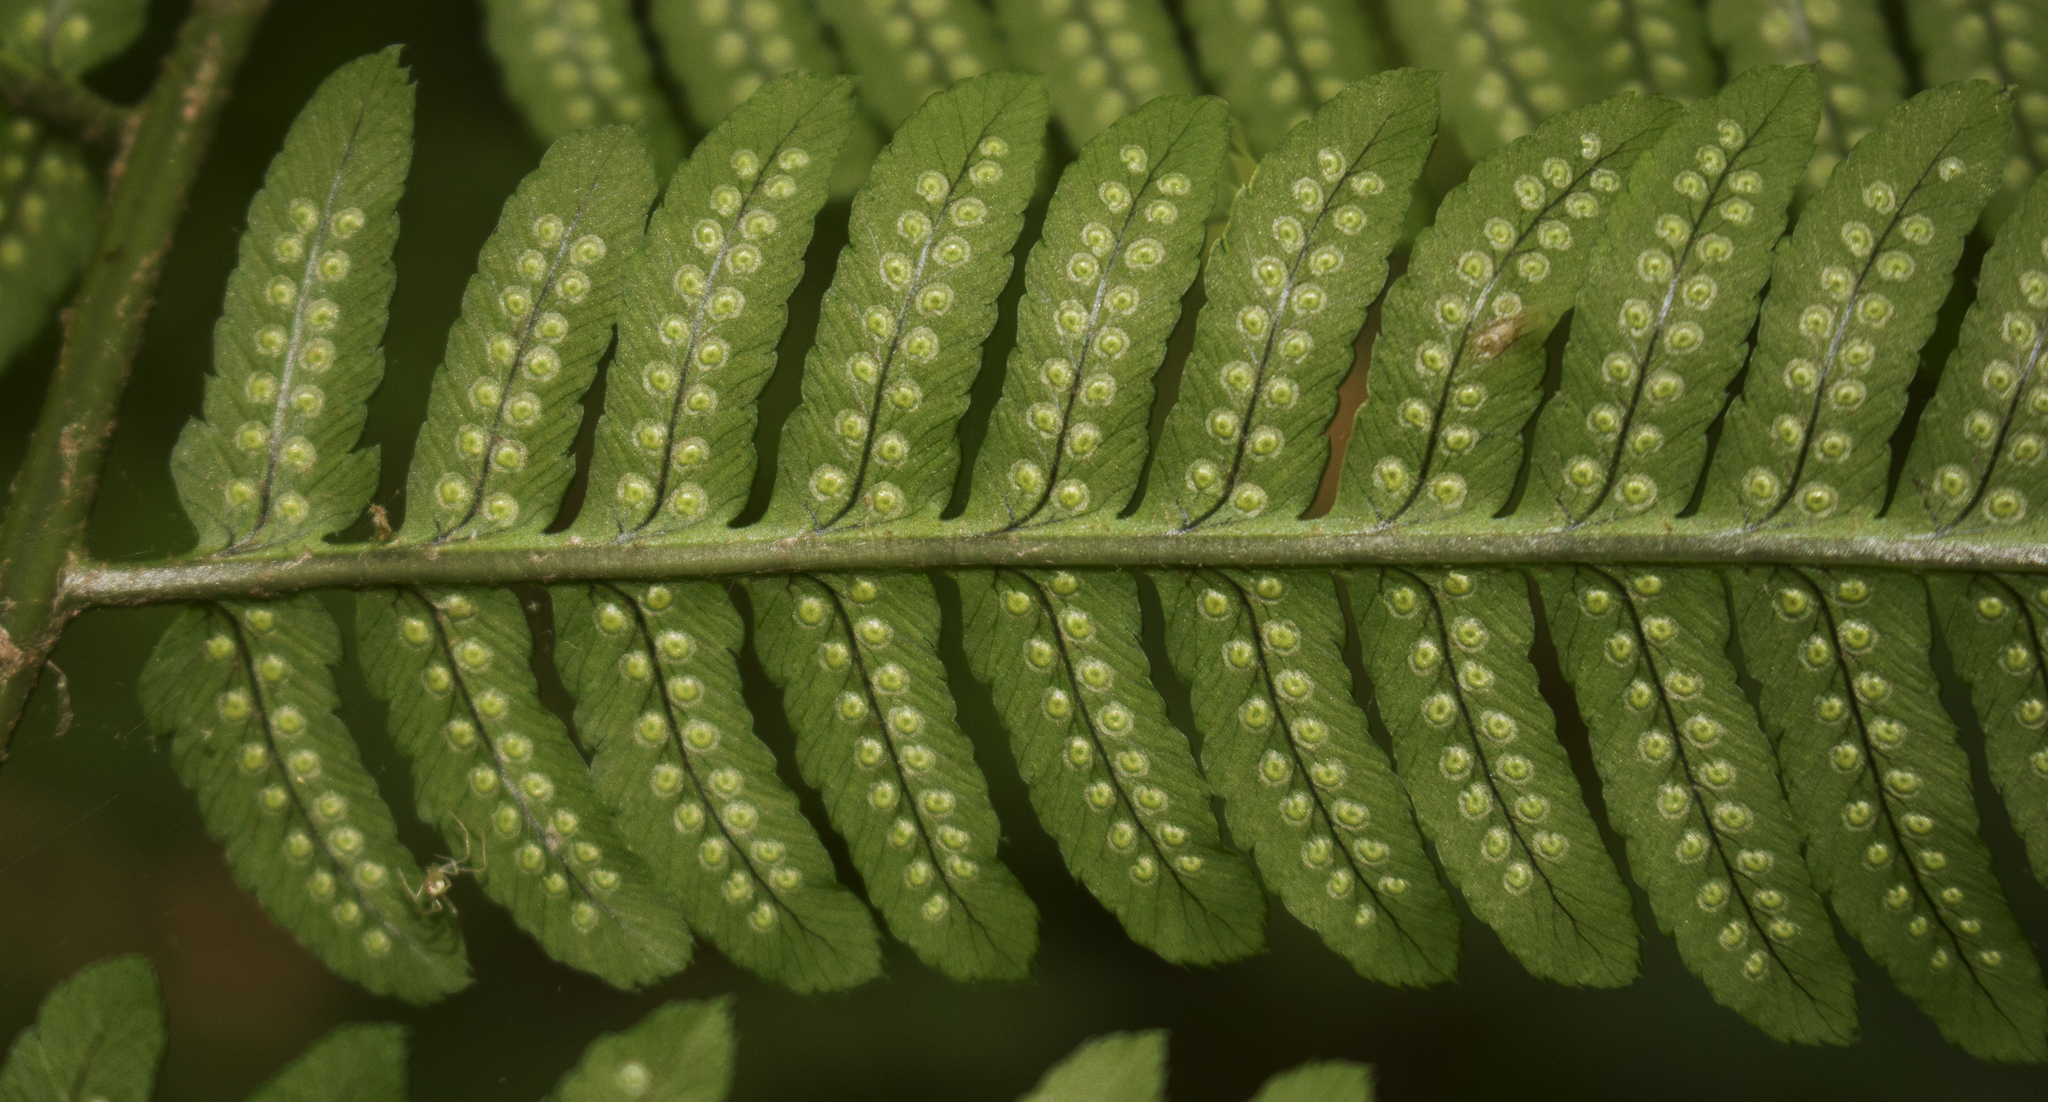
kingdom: Plantae
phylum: Tracheophyta
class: Polypodiopsida
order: Polypodiales
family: Dryopteridaceae
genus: Dryopteris
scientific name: Dryopteris goldieana
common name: Goldie's fern
